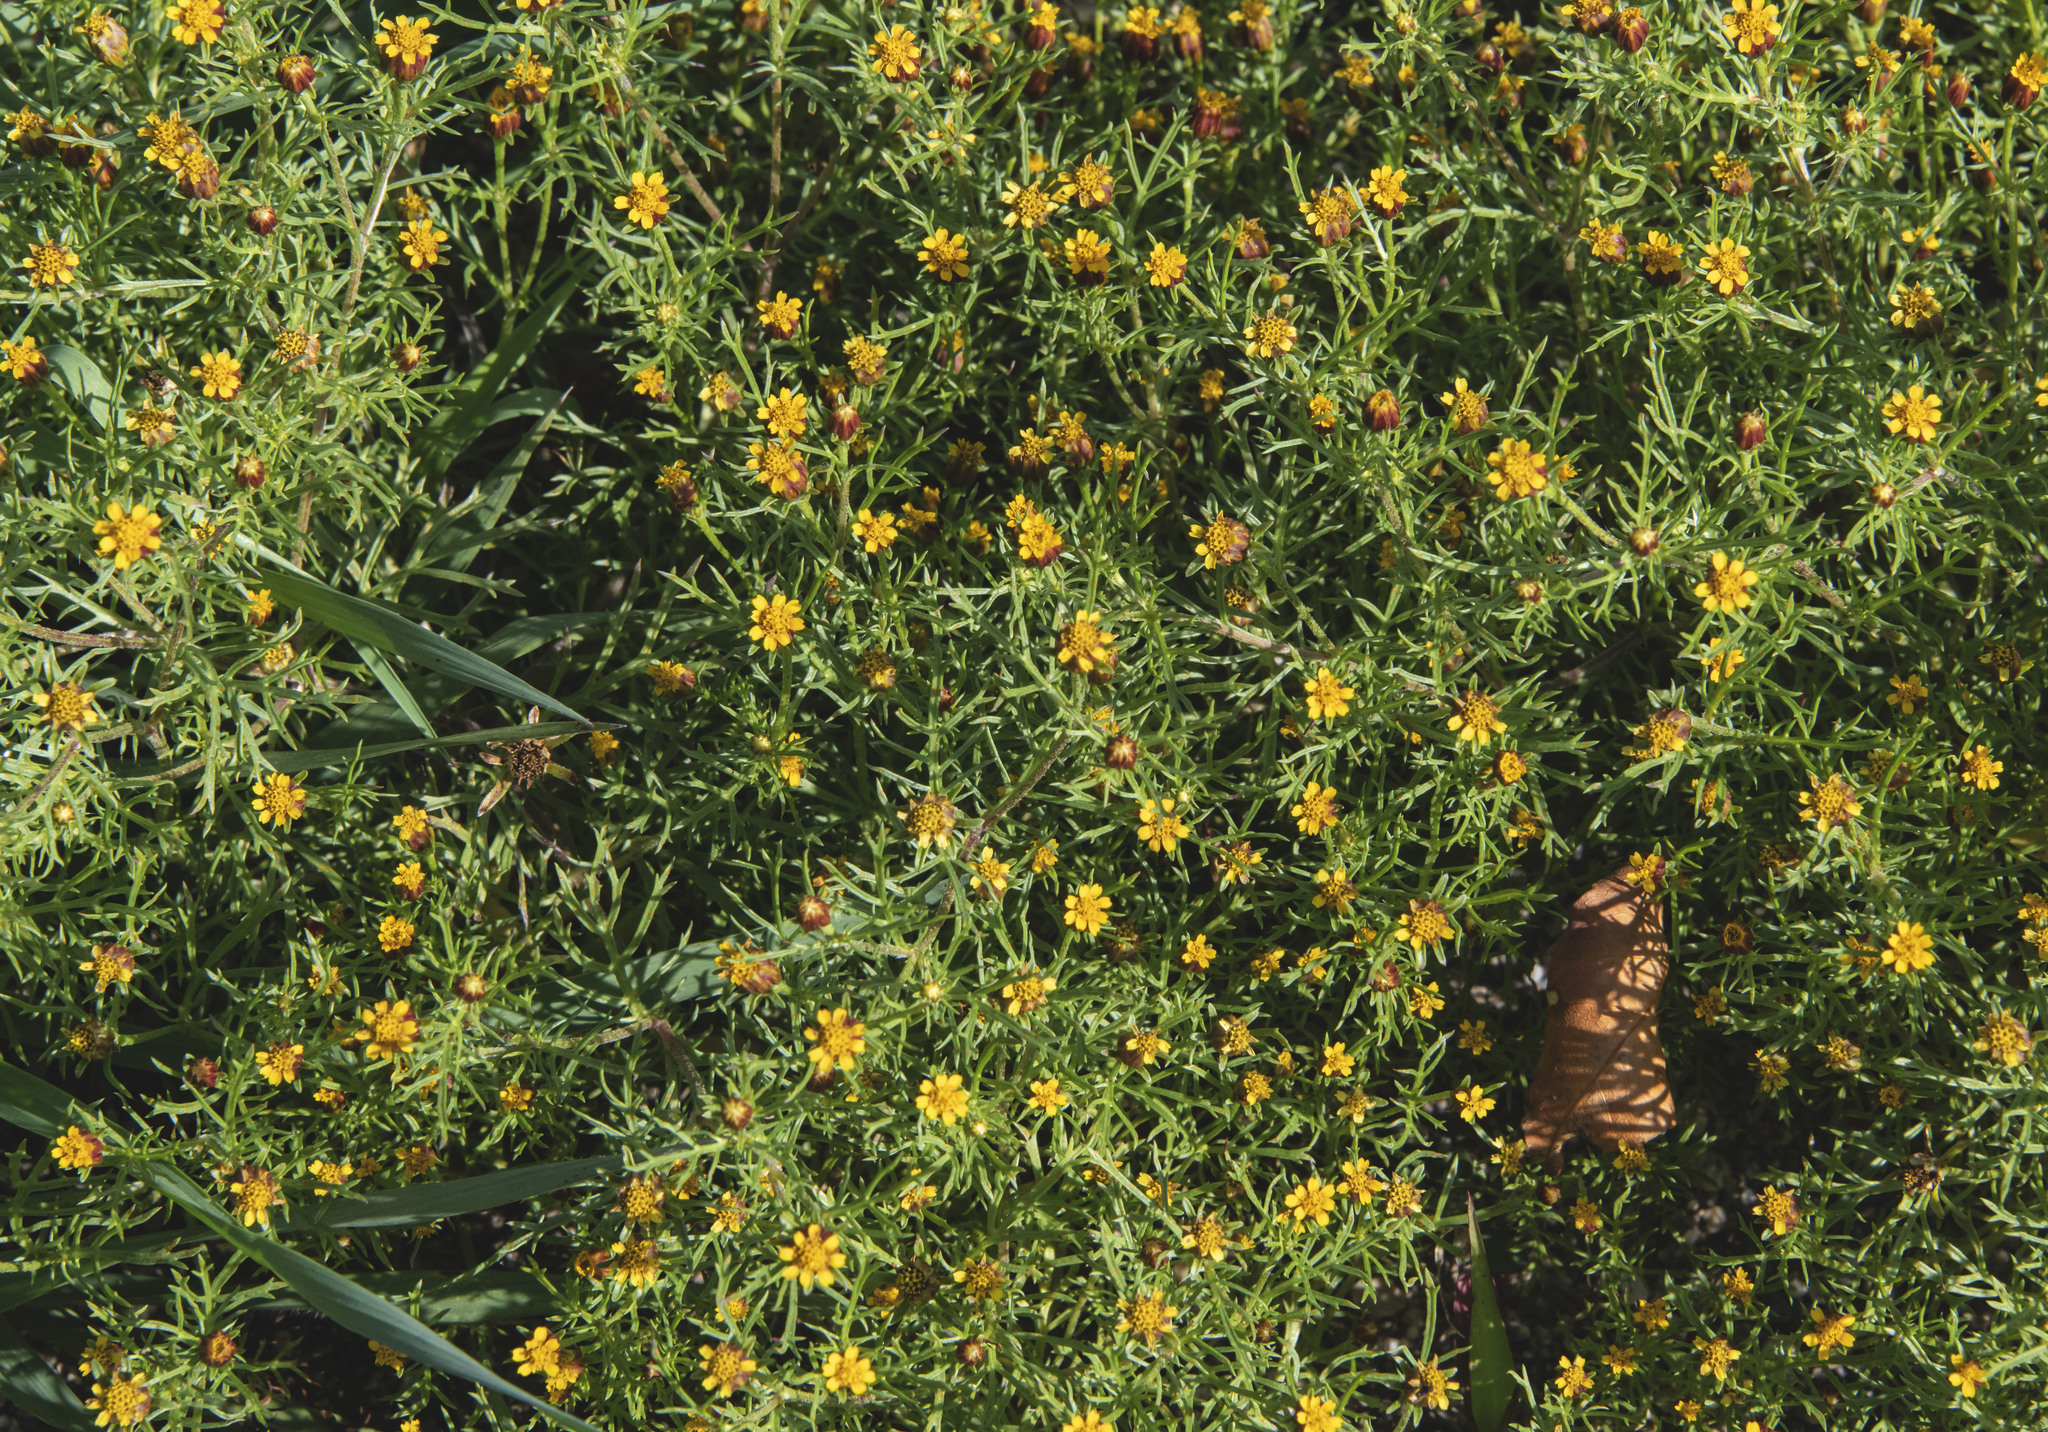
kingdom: Plantae
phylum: Tracheophyta
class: Magnoliopsida
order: Asterales
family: Asteraceae
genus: Dyssodia
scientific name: Dyssodia papposa
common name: Dogweed
